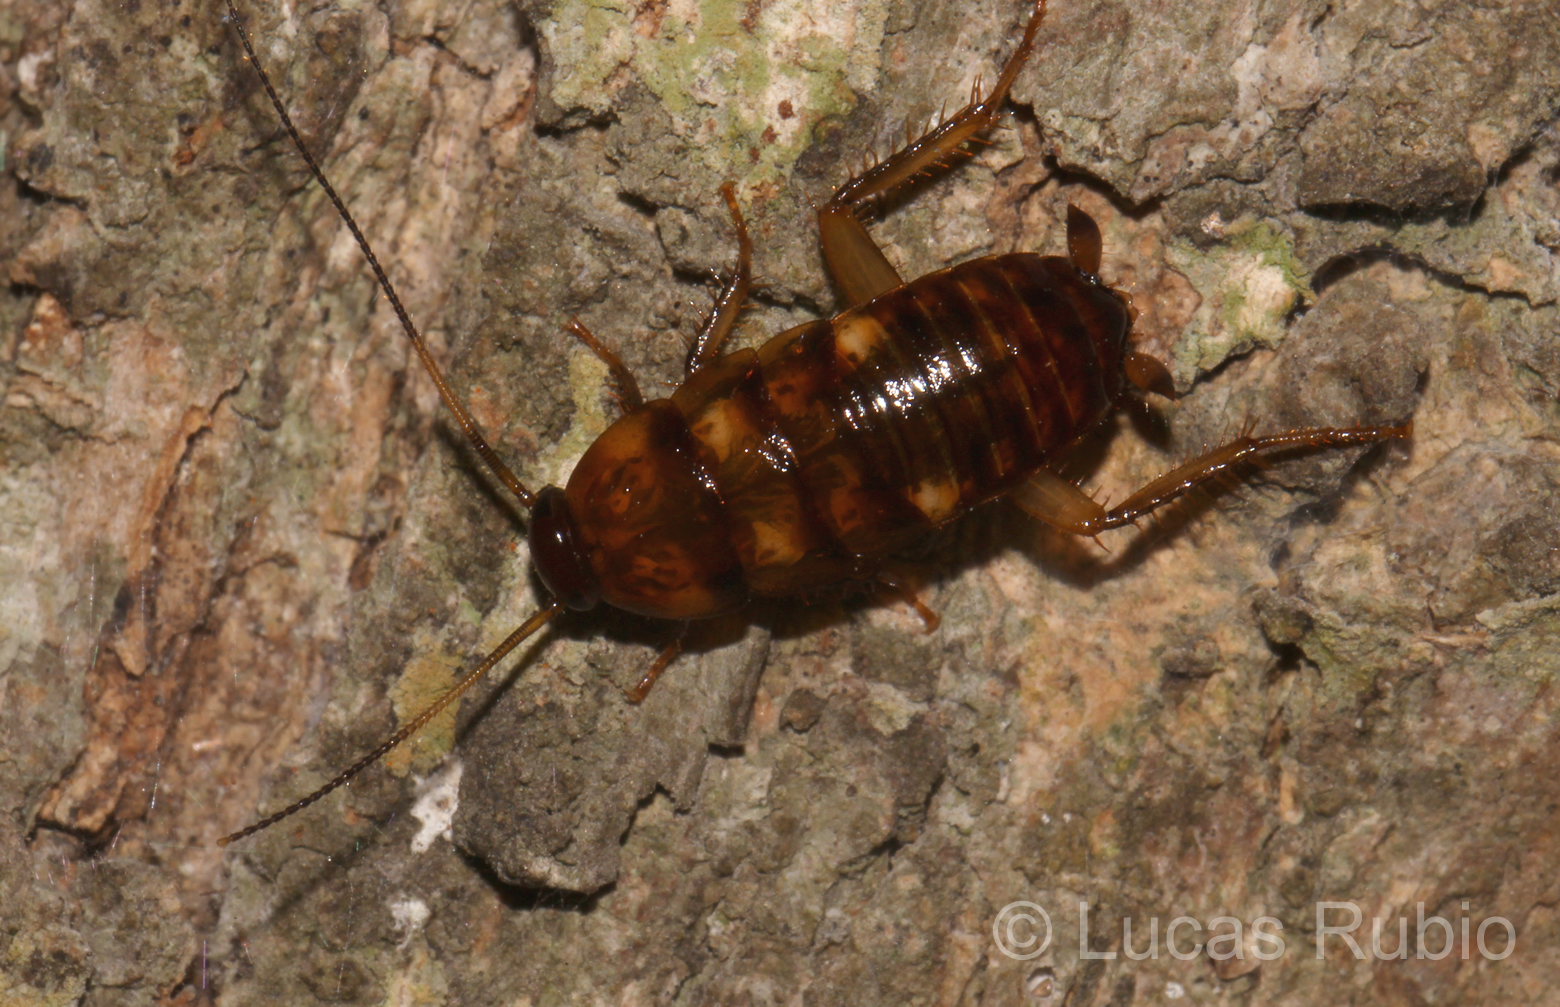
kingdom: Animalia
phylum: Arthropoda
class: Insecta
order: Blattodea
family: Blattidae
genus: Periplaneta
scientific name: Periplaneta fuliginosa
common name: Smokeybrown cockroad
